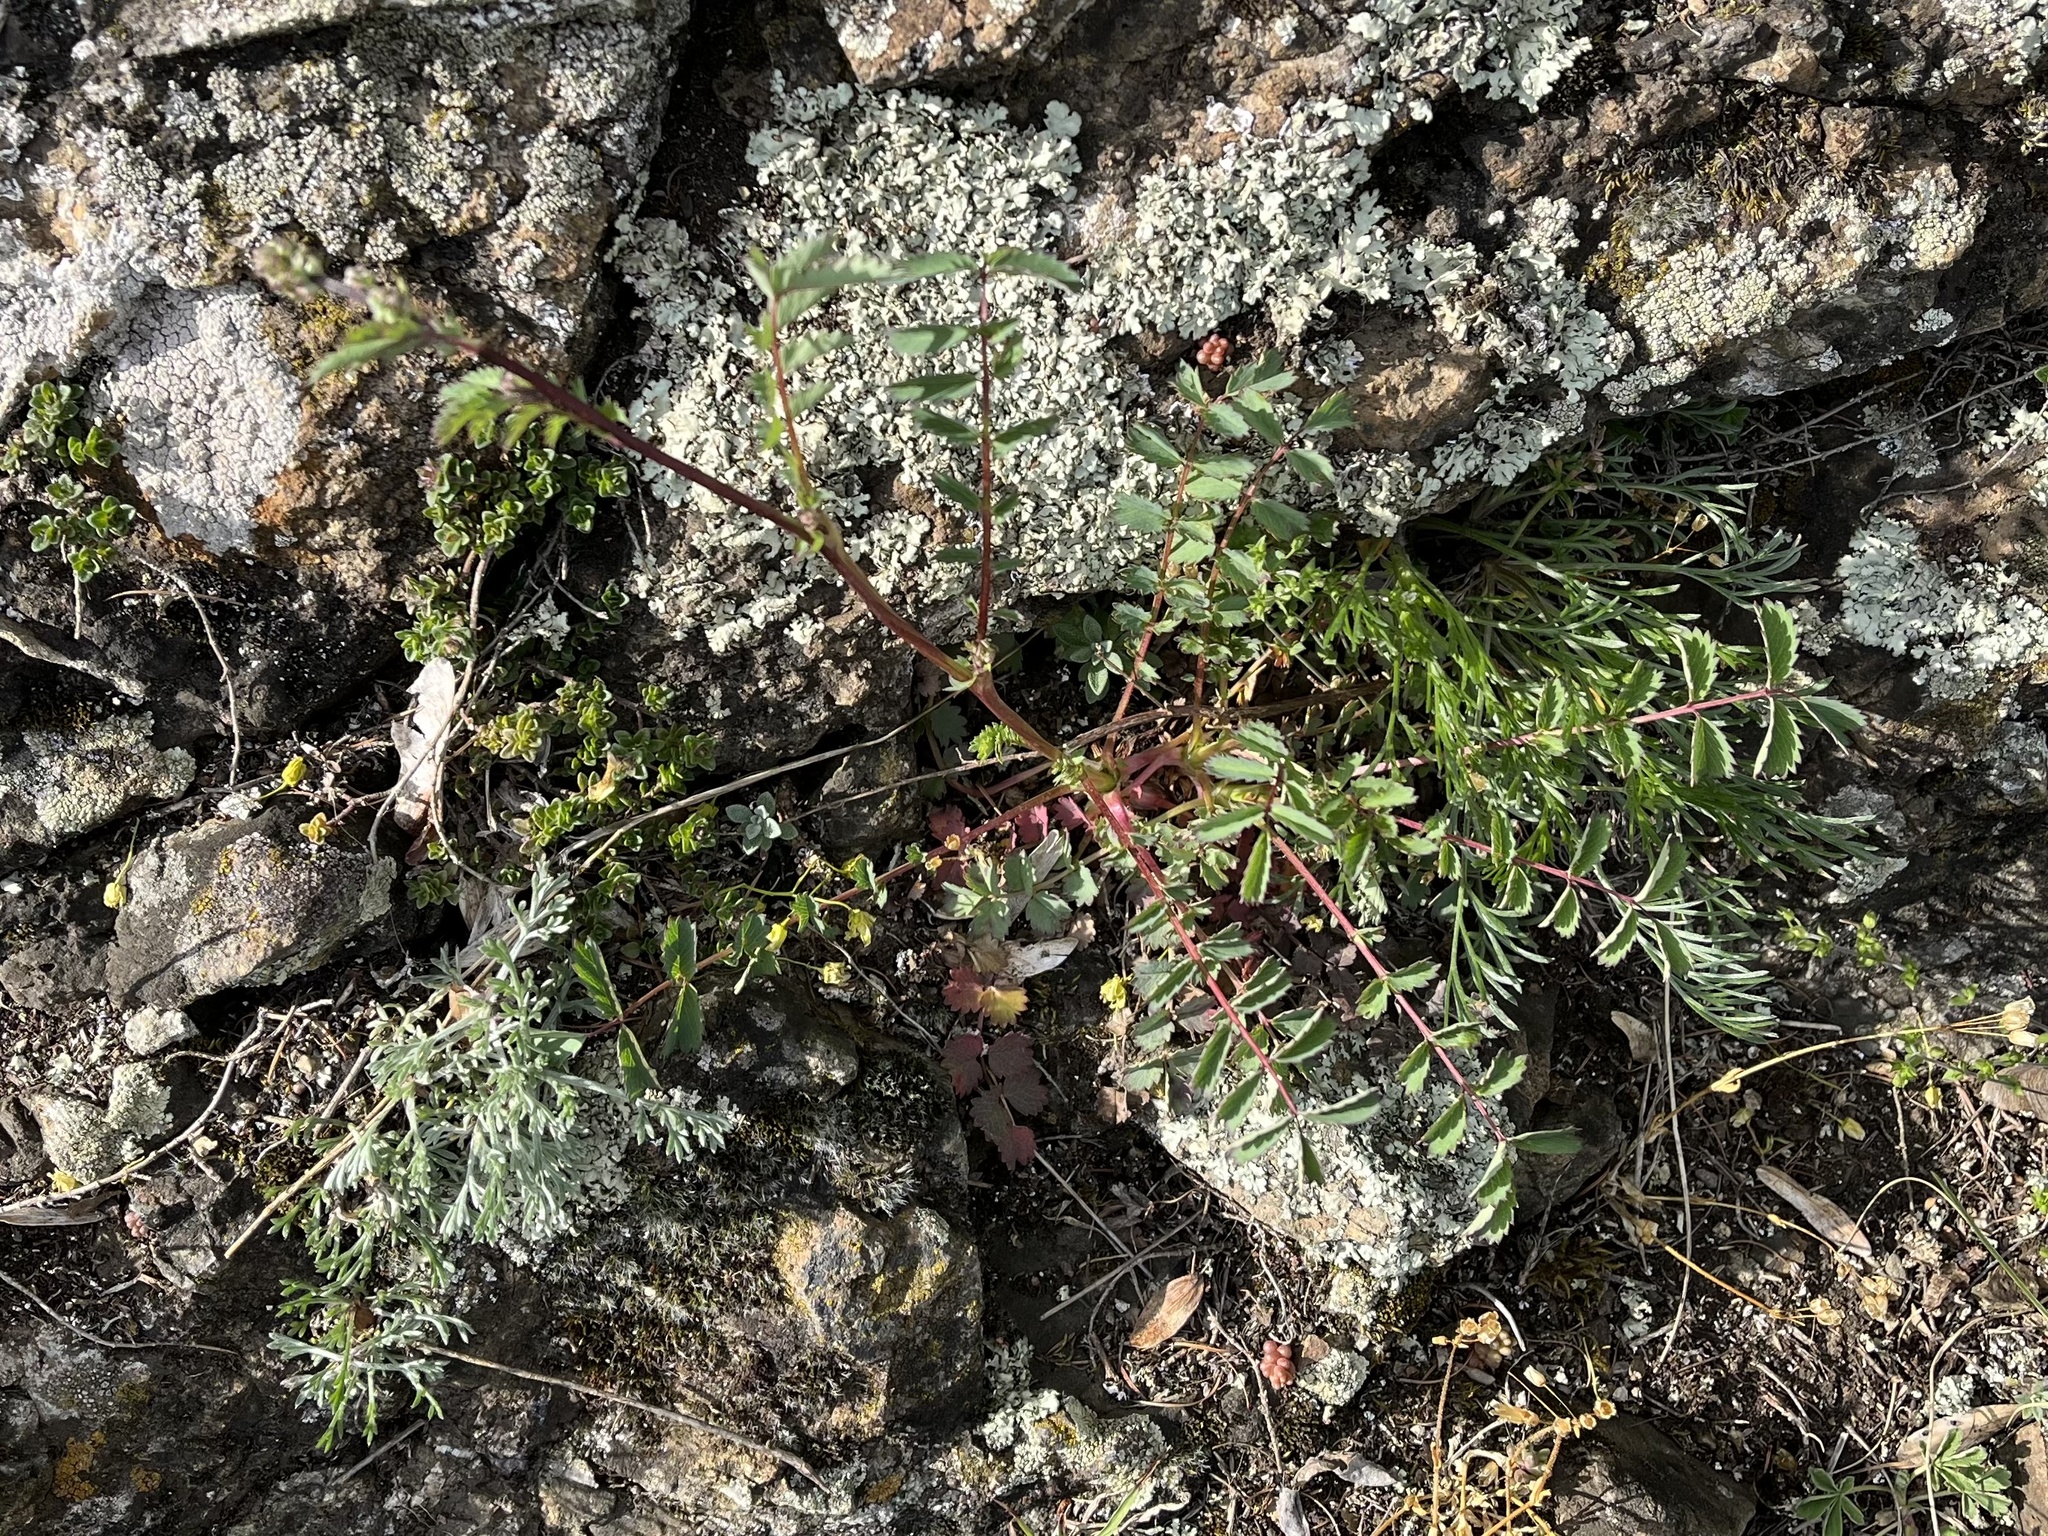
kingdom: Plantae
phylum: Tracheophyta
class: Magnoliopsida
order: Rosales
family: Rosaceae
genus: Poterium
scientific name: Poterium sanguisorba
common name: Salad burnet
